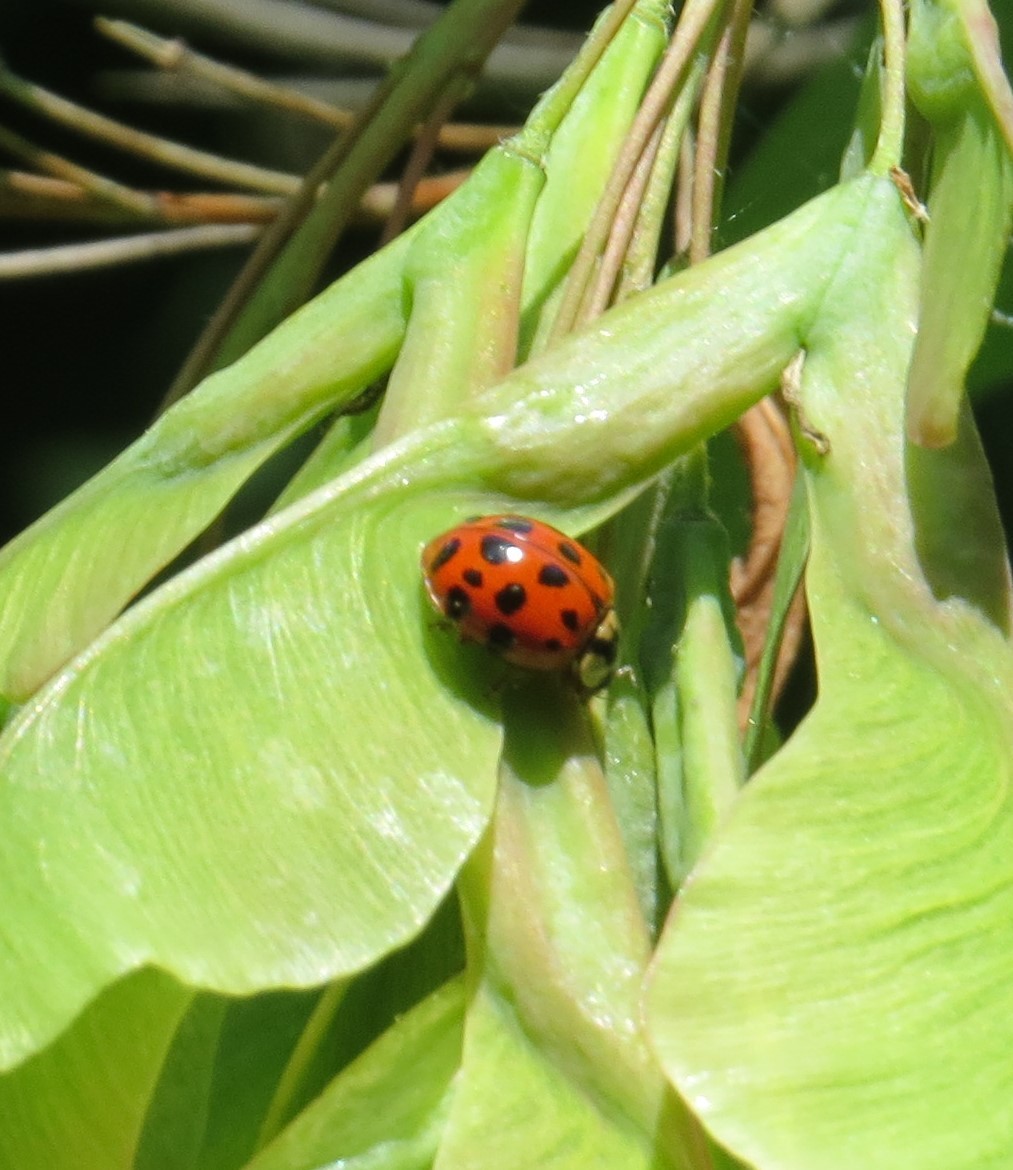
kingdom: Animalia
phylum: Arthropoda
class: Insecta
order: Coleoptera
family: Coccinellidae
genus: Harmonia
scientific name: Harmonia axyridis
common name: Harlequin ladybird
